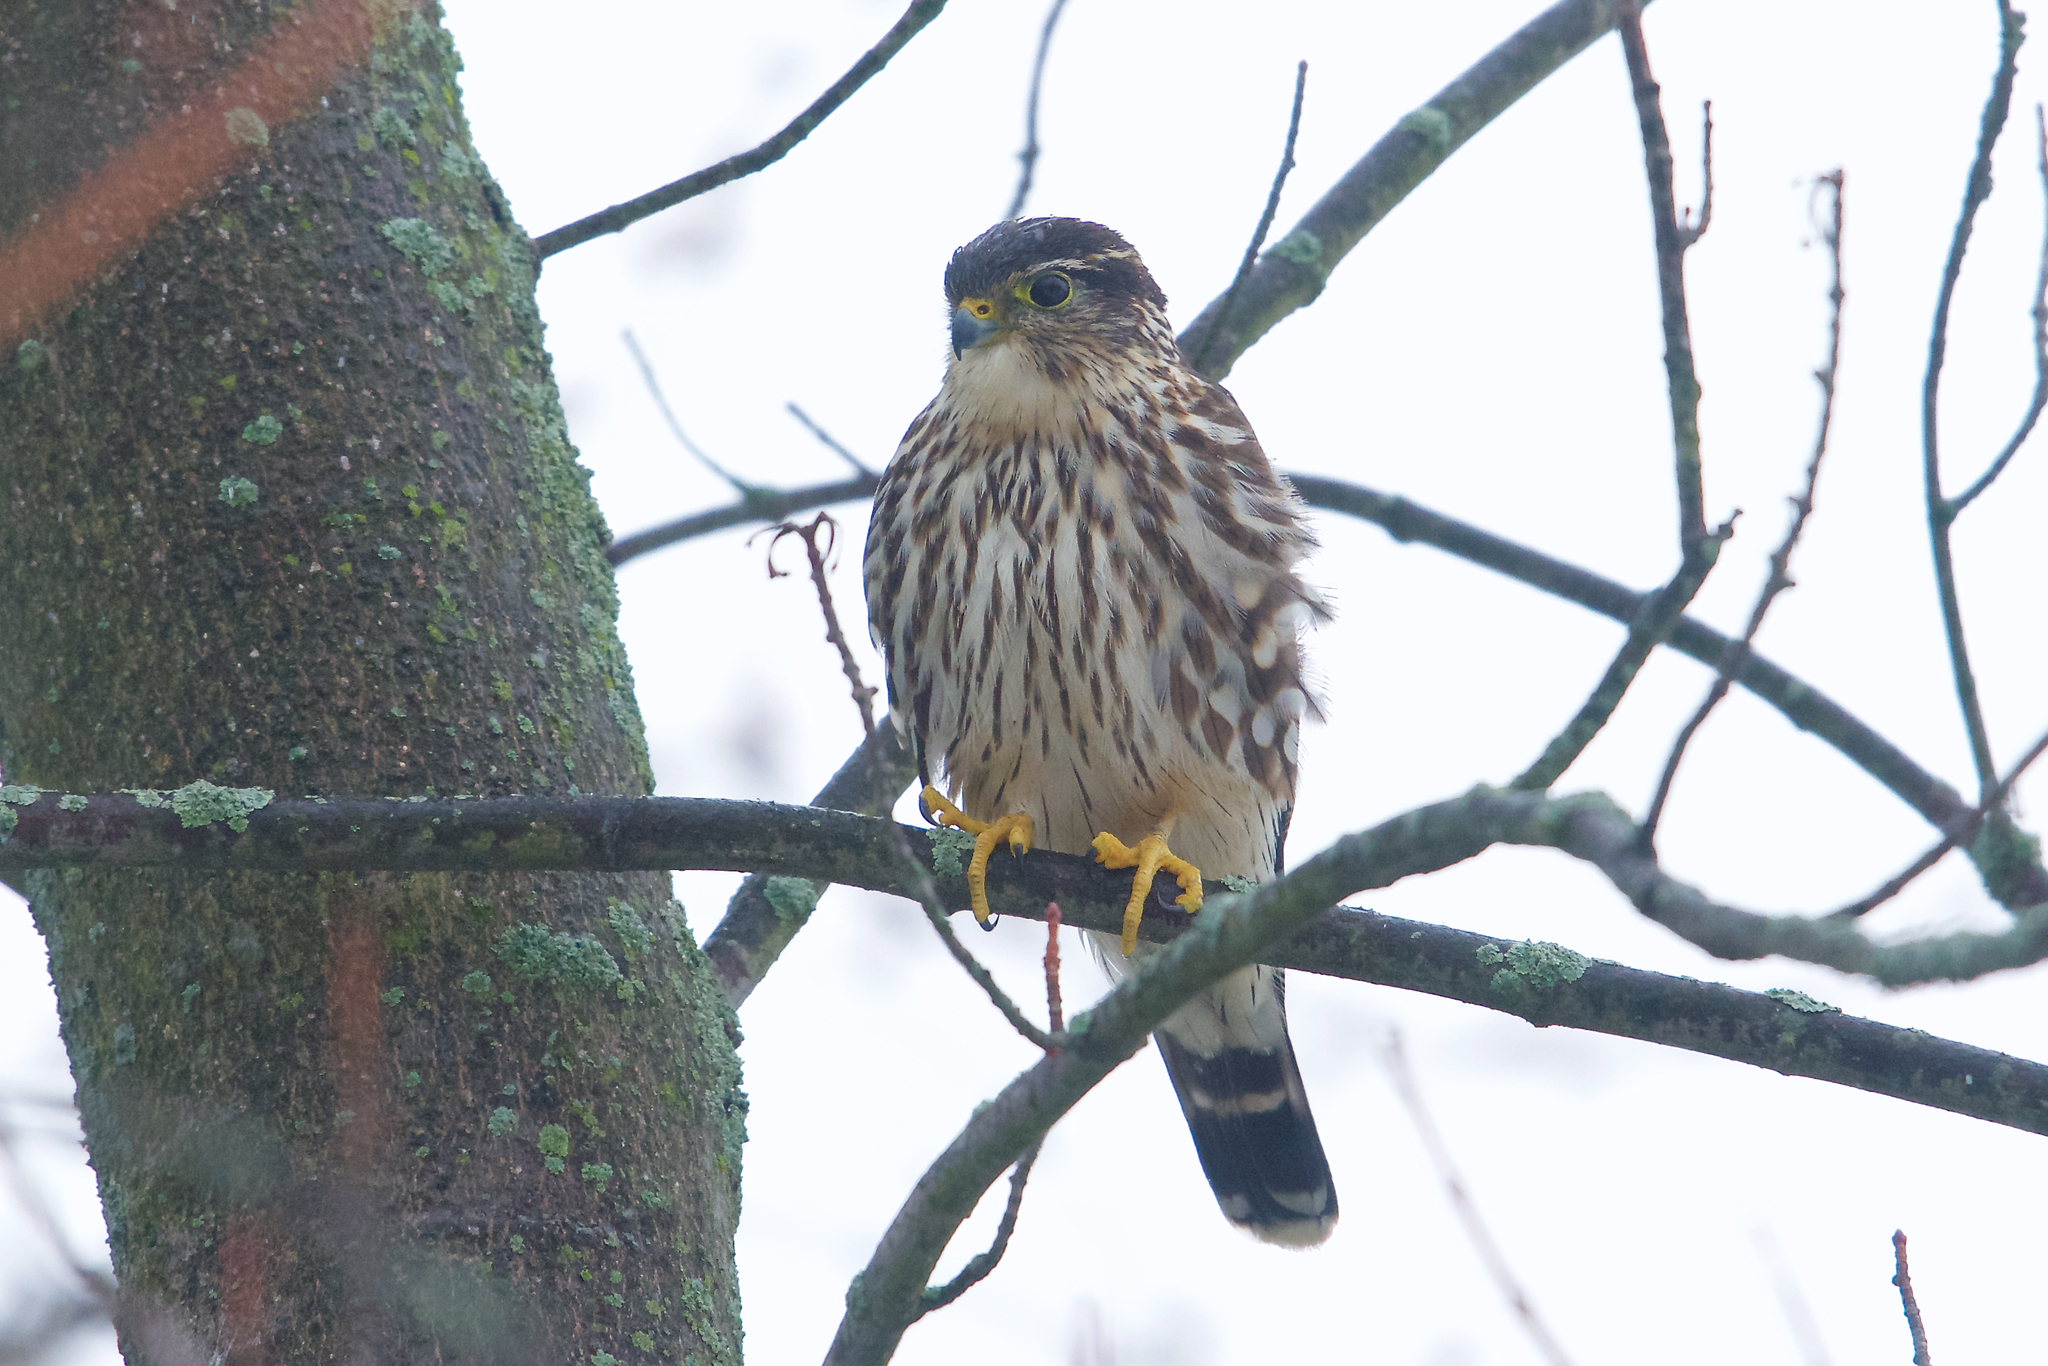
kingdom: Animalia
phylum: Chordata
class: Aves
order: Falconiformes
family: Falconidae
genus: Falco
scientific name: Falco columbarius
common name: Merlin
